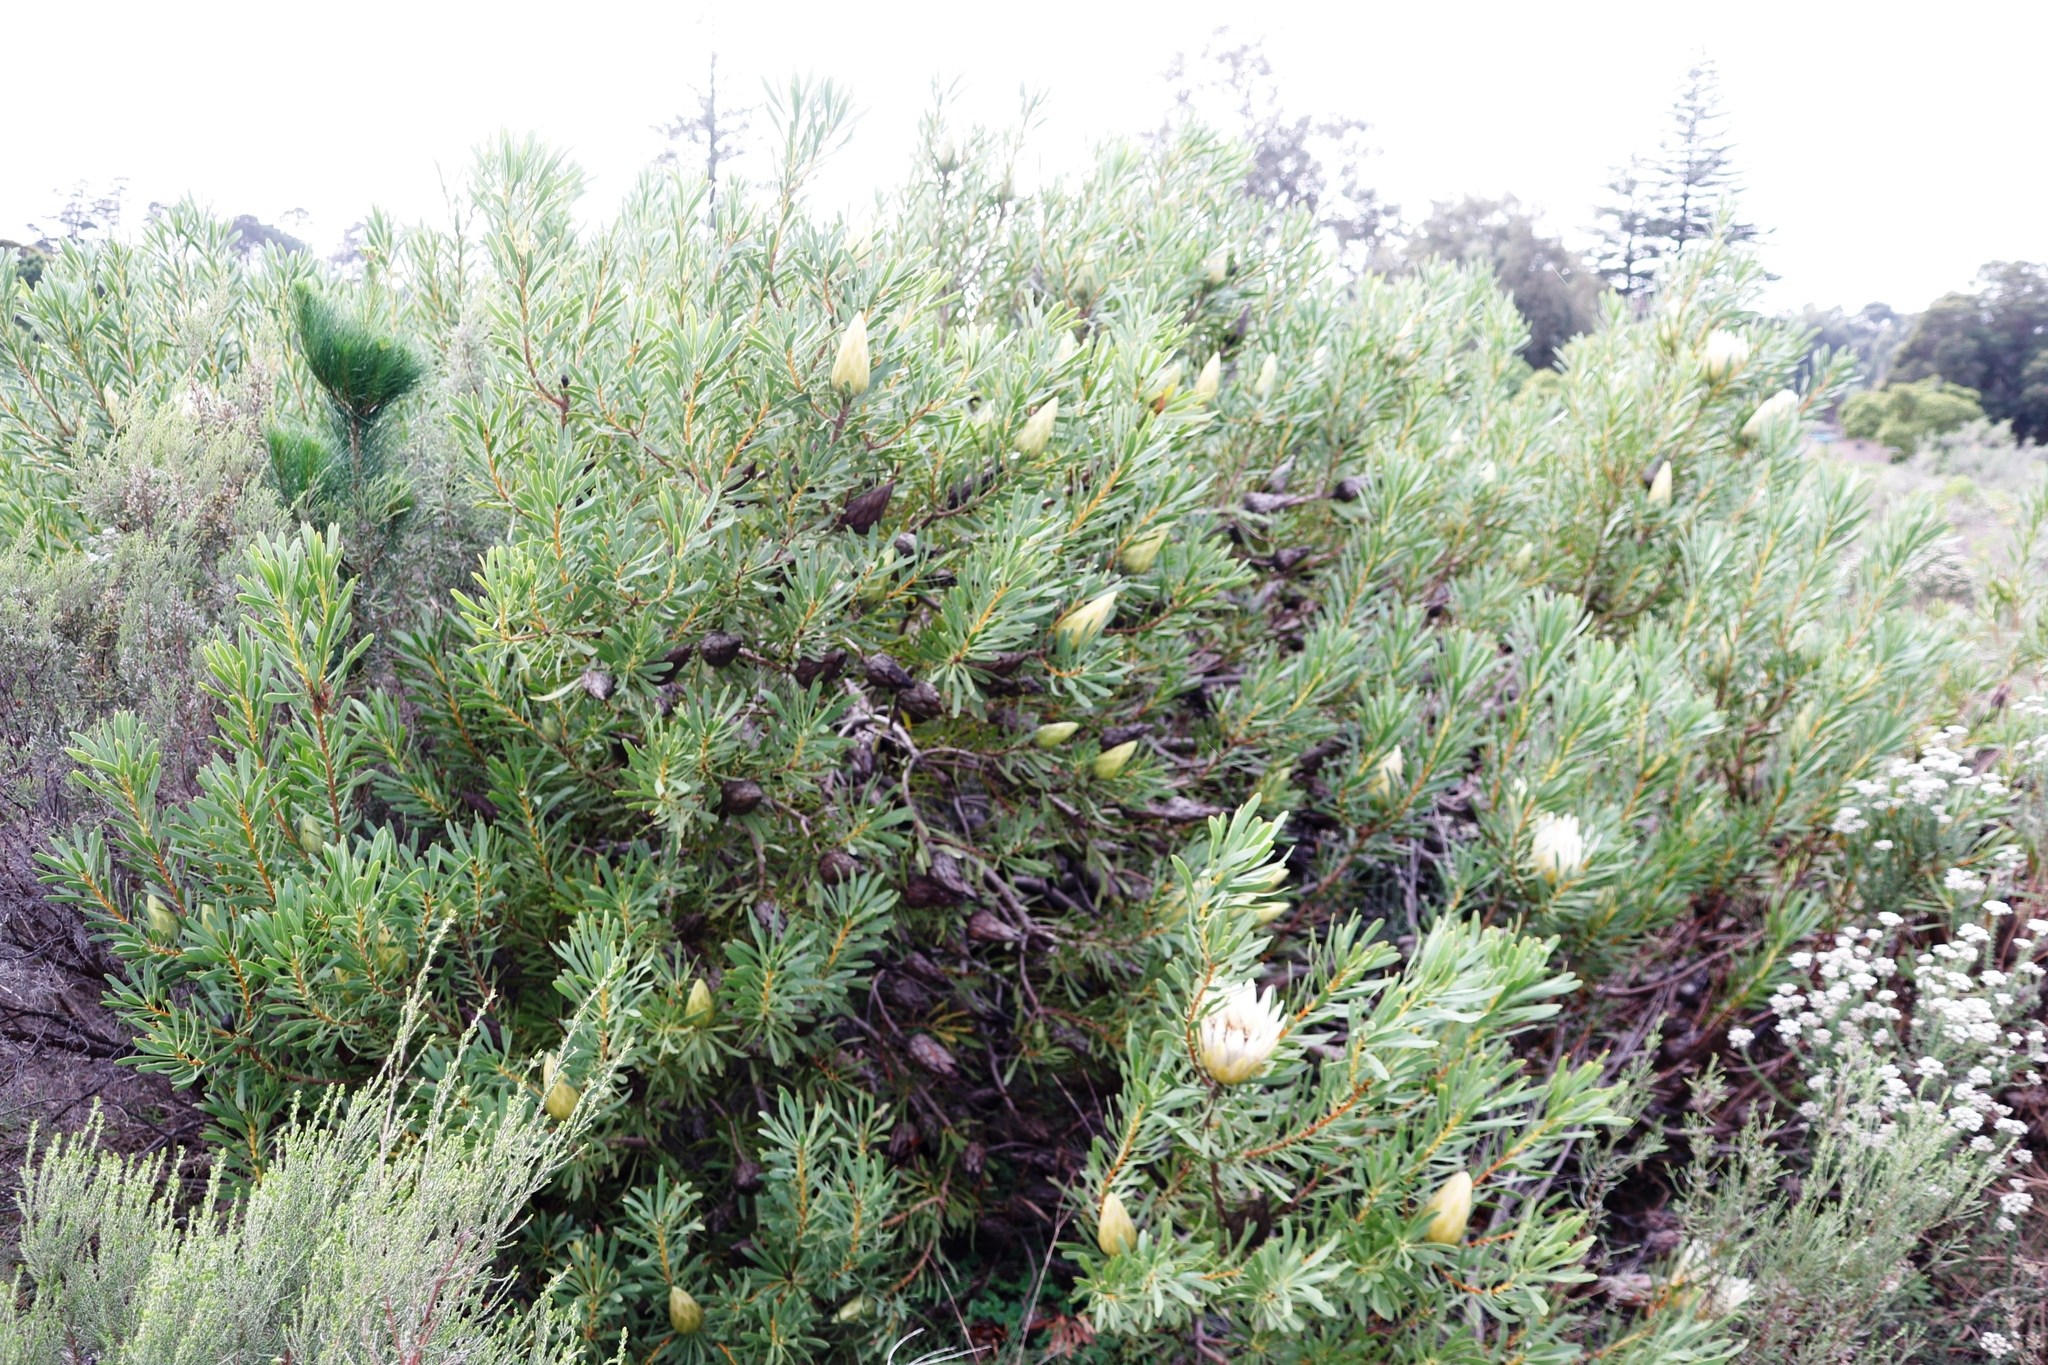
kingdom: Plantae
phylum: Tracheophyta
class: Magnoliopsida
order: Proteales
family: Proteaceae
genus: Protea
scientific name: Protea repens
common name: Sugarbush
